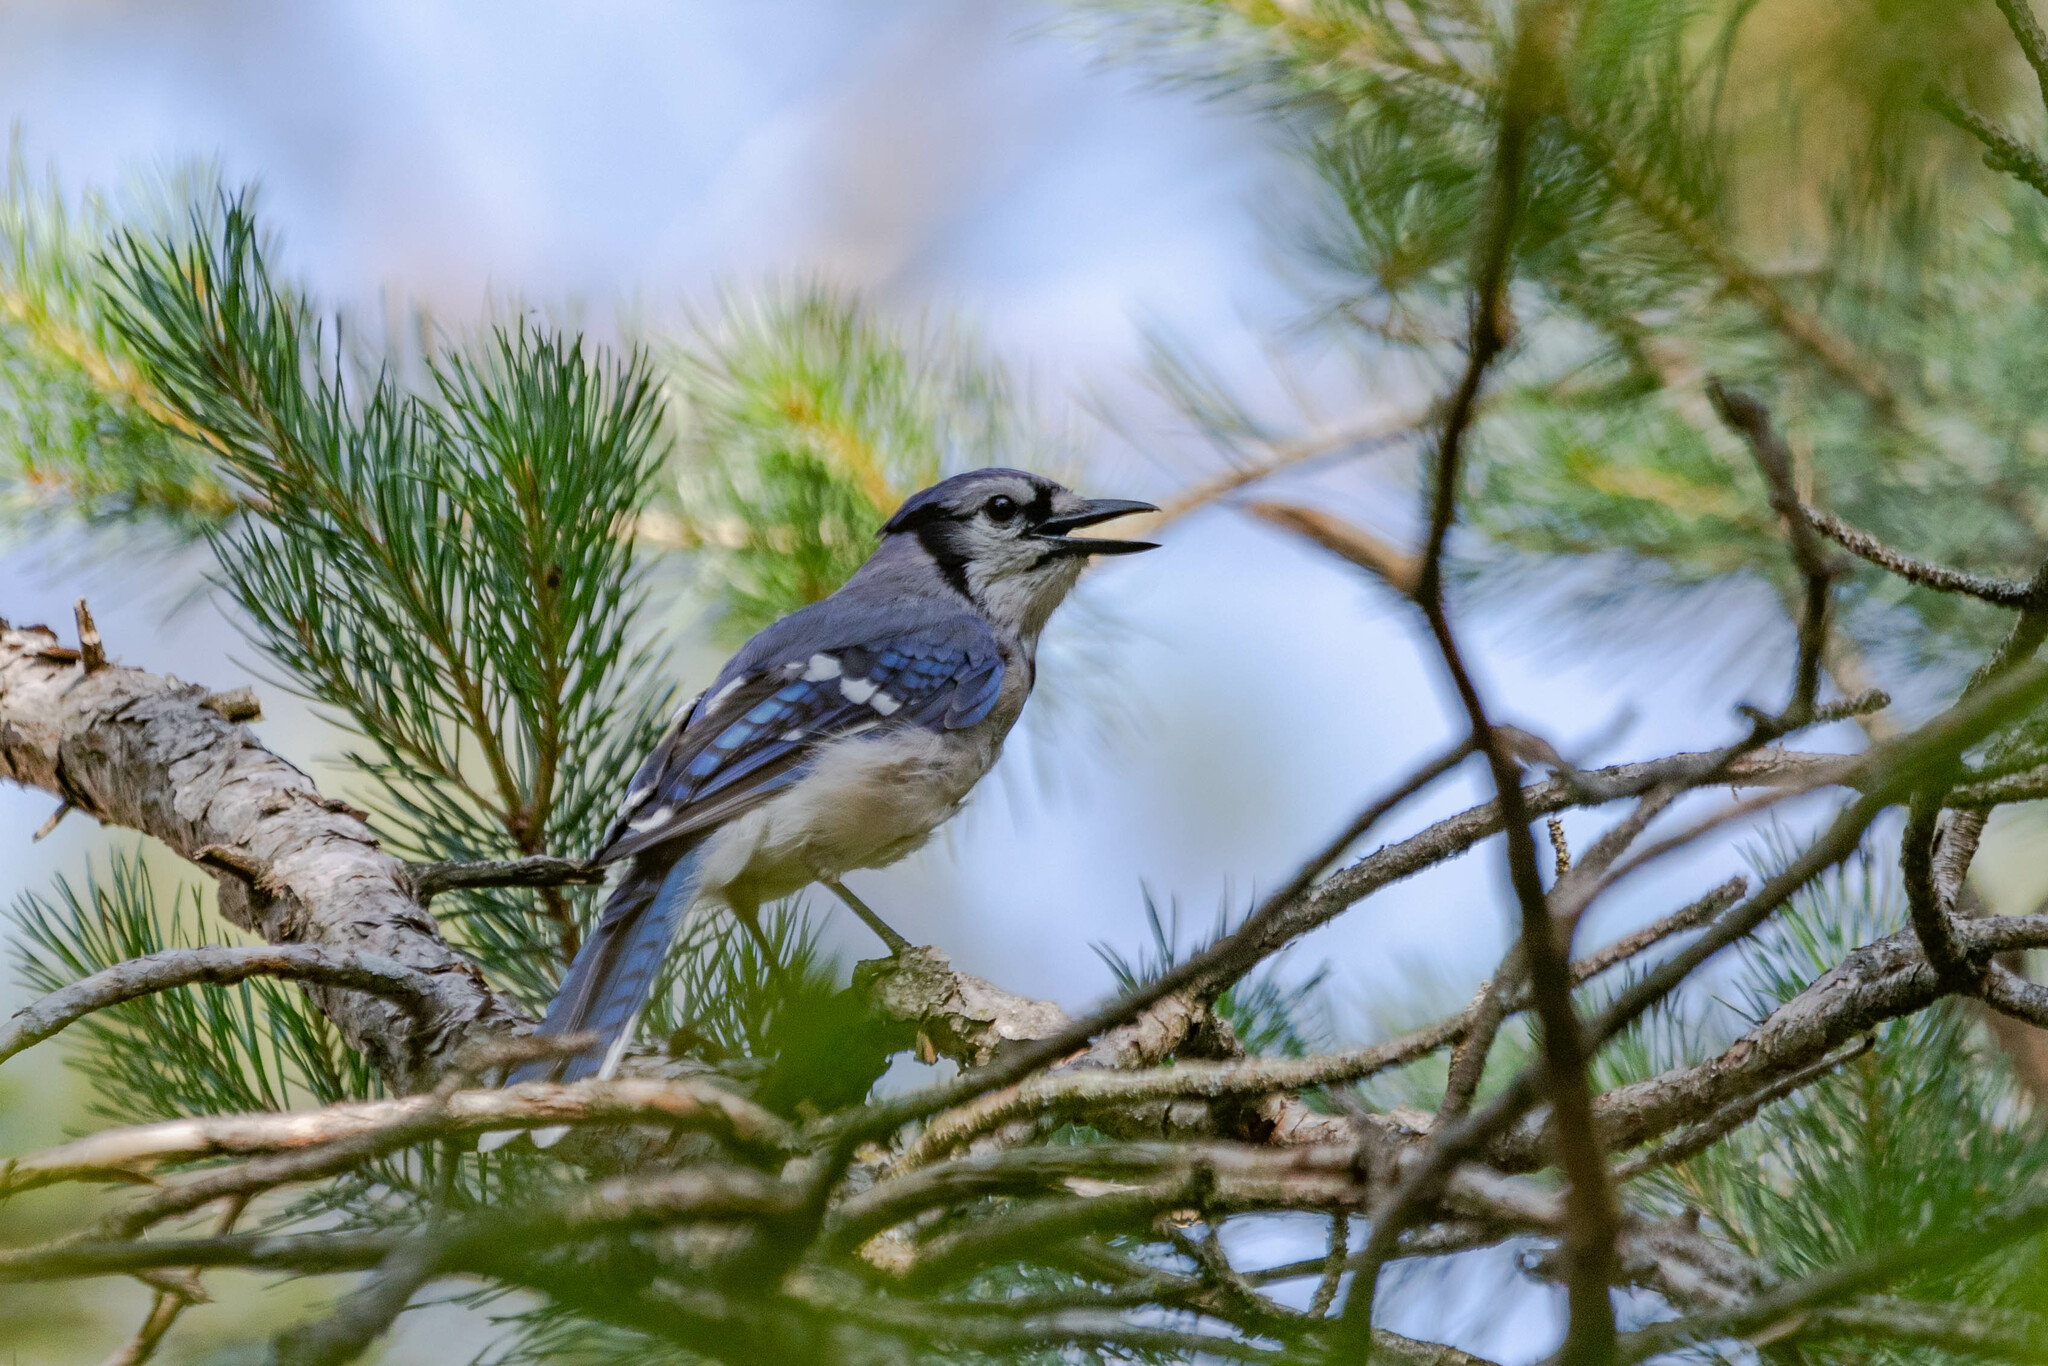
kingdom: Animalia
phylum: Chordata
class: Aves
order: Passeriformes
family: Corvidae
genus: Cyanocitta
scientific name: Cyanocitta cristata
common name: Blue jay
